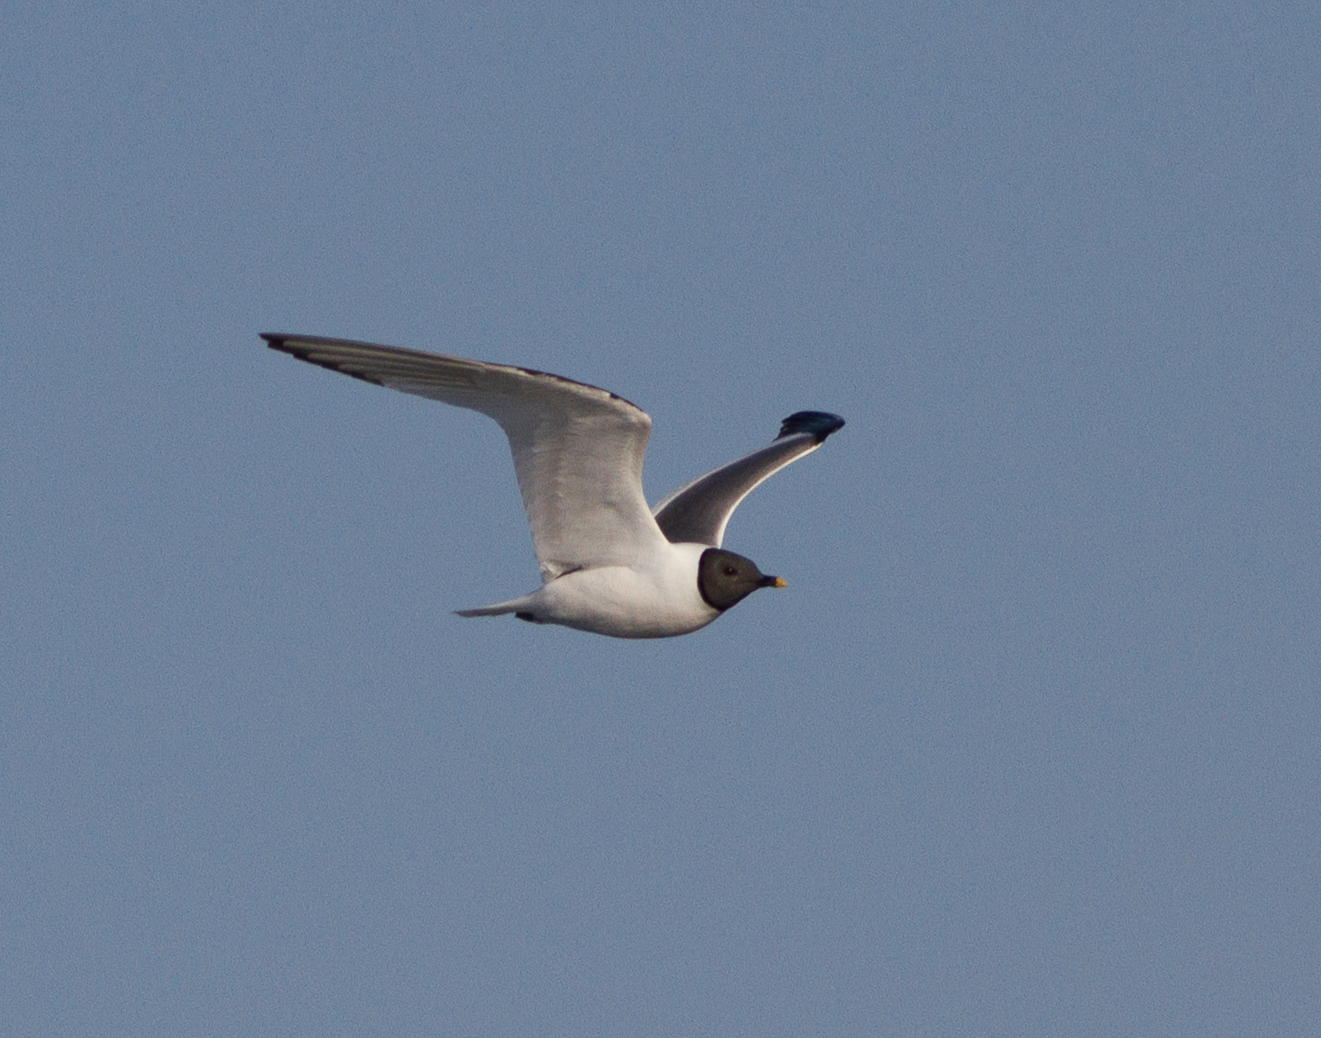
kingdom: Animalia
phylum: Chordata
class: Aves
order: Charadriiformes
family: Laridae
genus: Xema
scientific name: Xema sabini
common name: Sabine's gull
